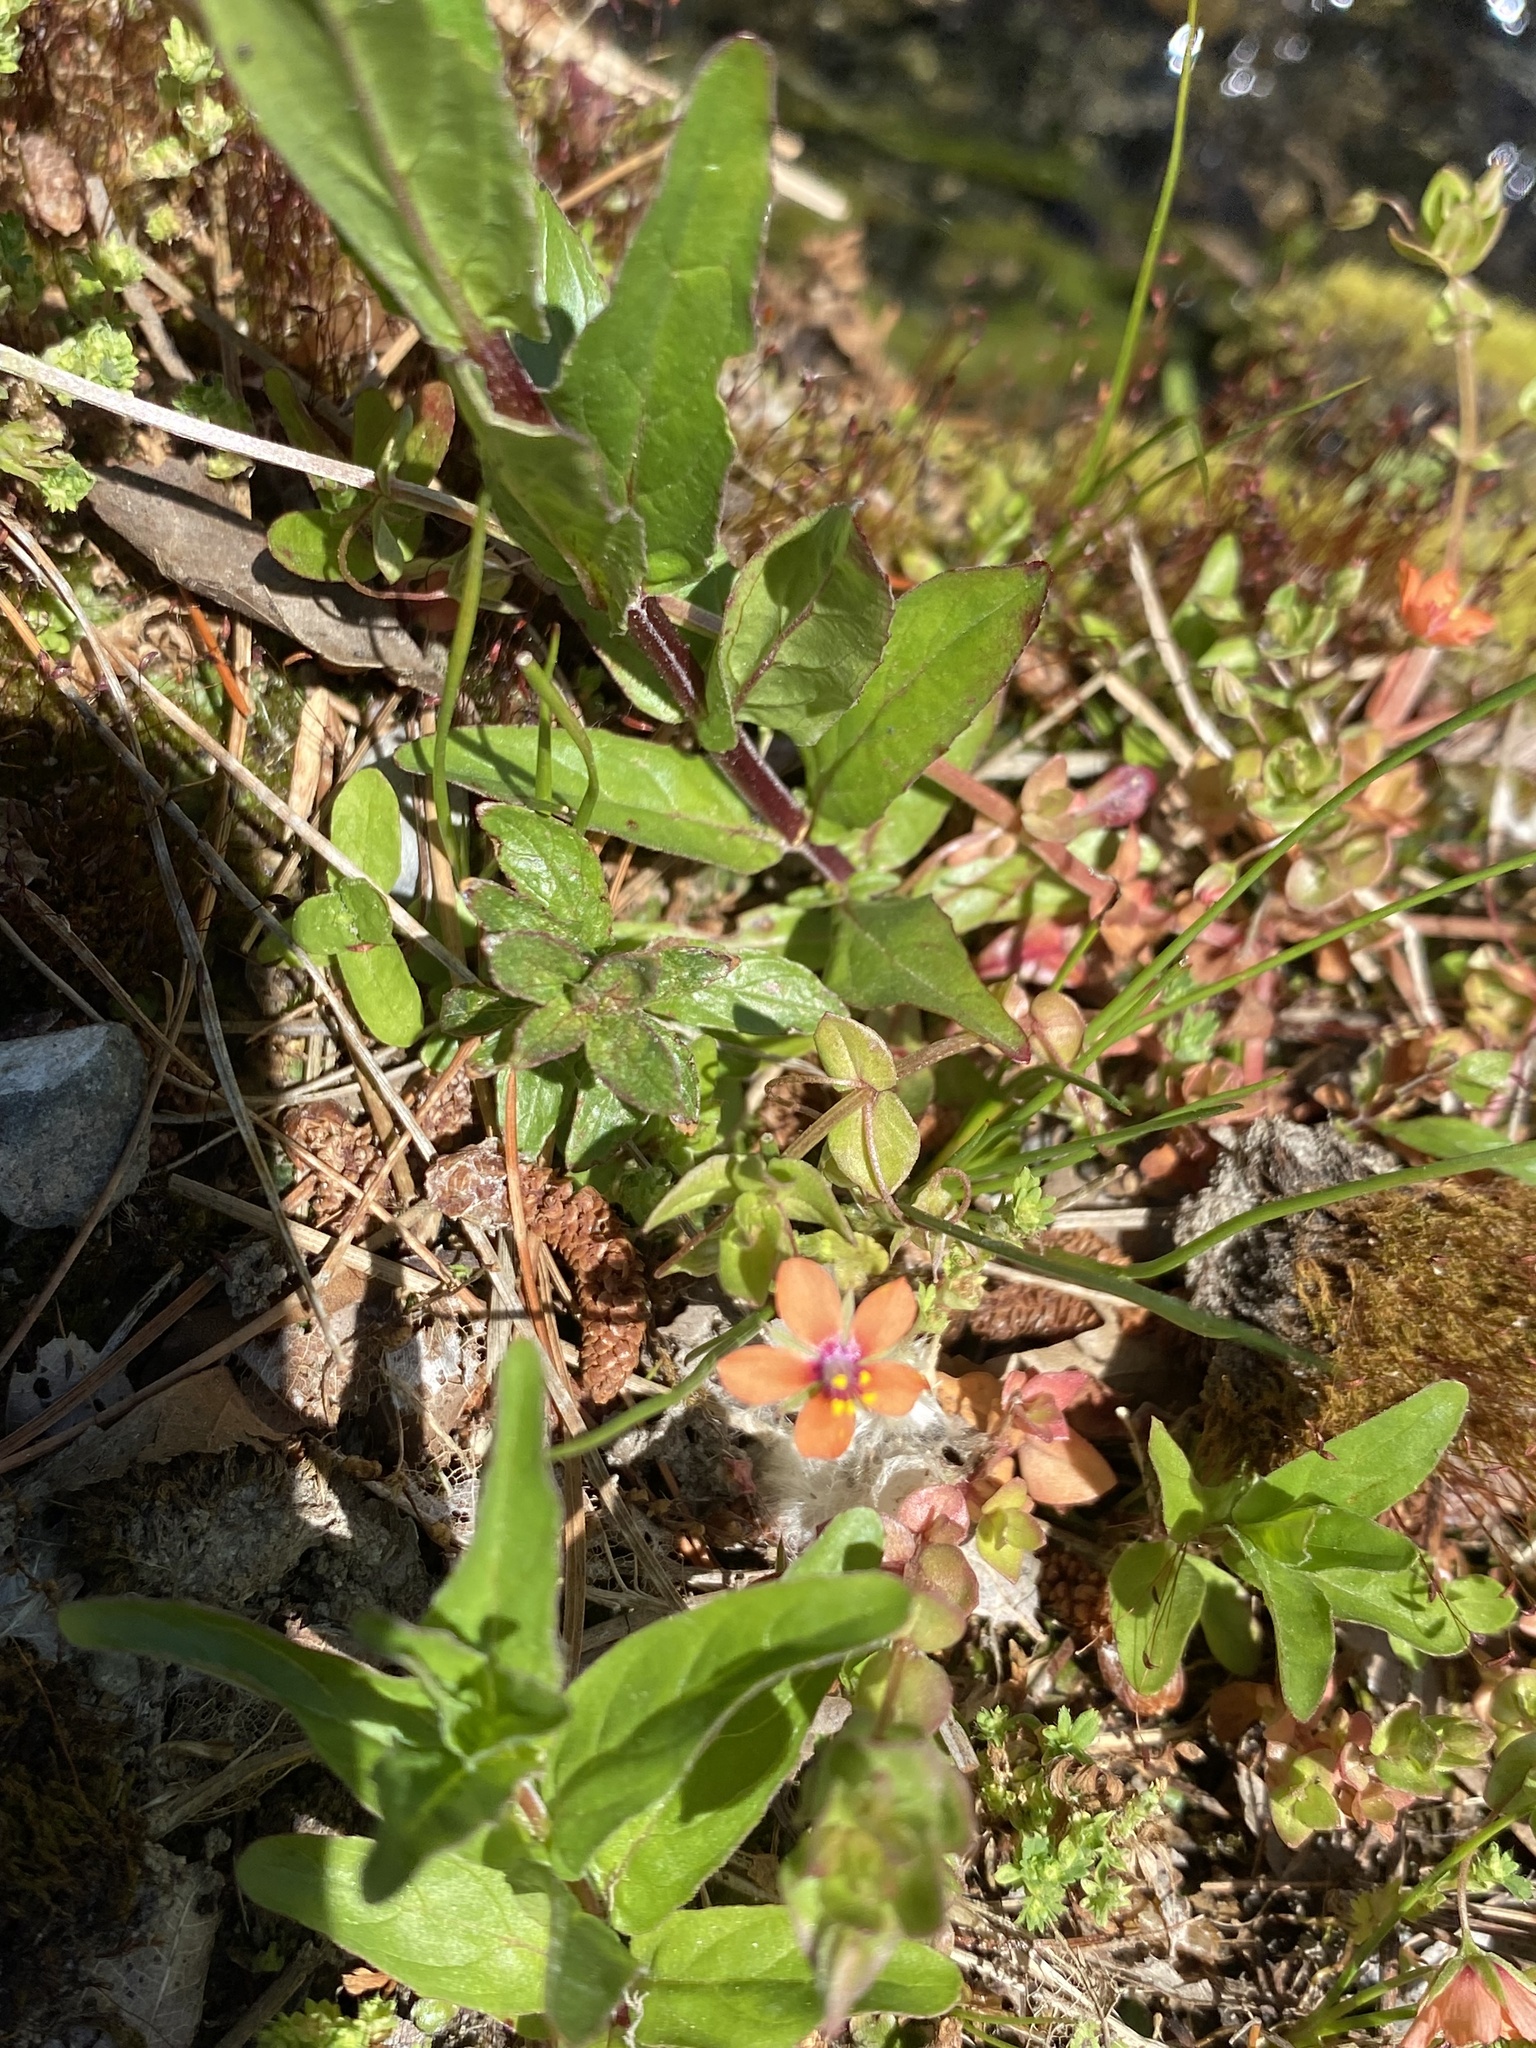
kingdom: Plantae
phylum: Tracheophyta
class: Magnoliopsida
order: Ericales
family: Primulaceae
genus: Lysimachia
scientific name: Lysimachia arvensis
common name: Scarlet pimpernel
